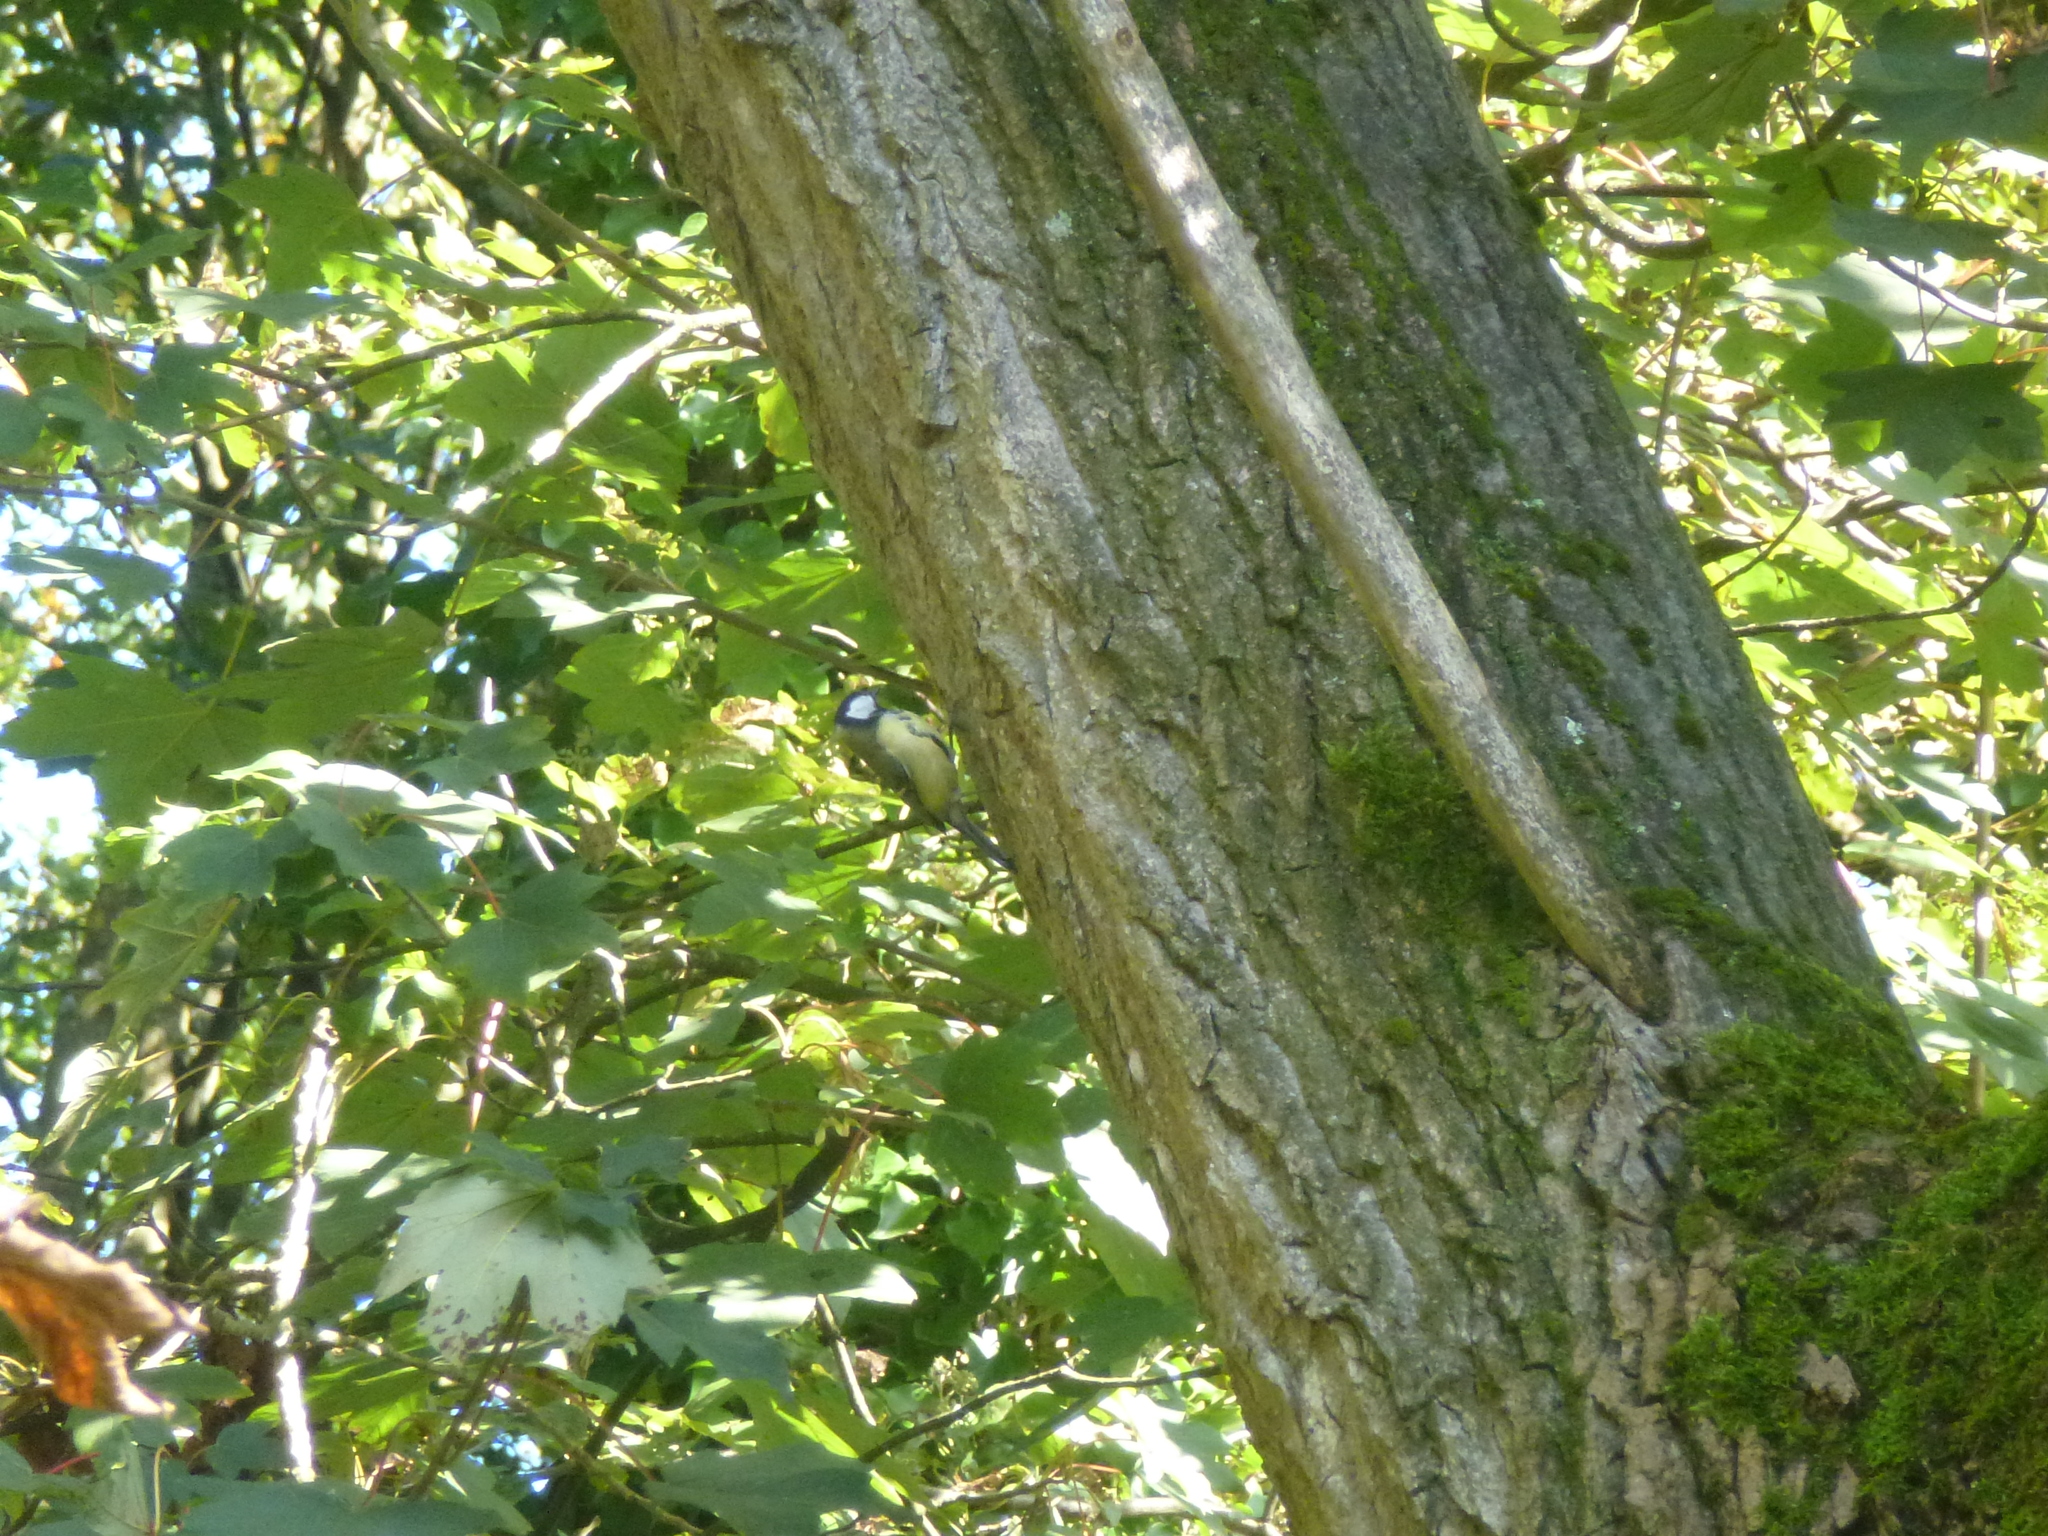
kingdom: Animalia
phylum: Chordata
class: Aves
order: Passeriformes
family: Paridae
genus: Parus
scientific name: Parus major
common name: Great tit
